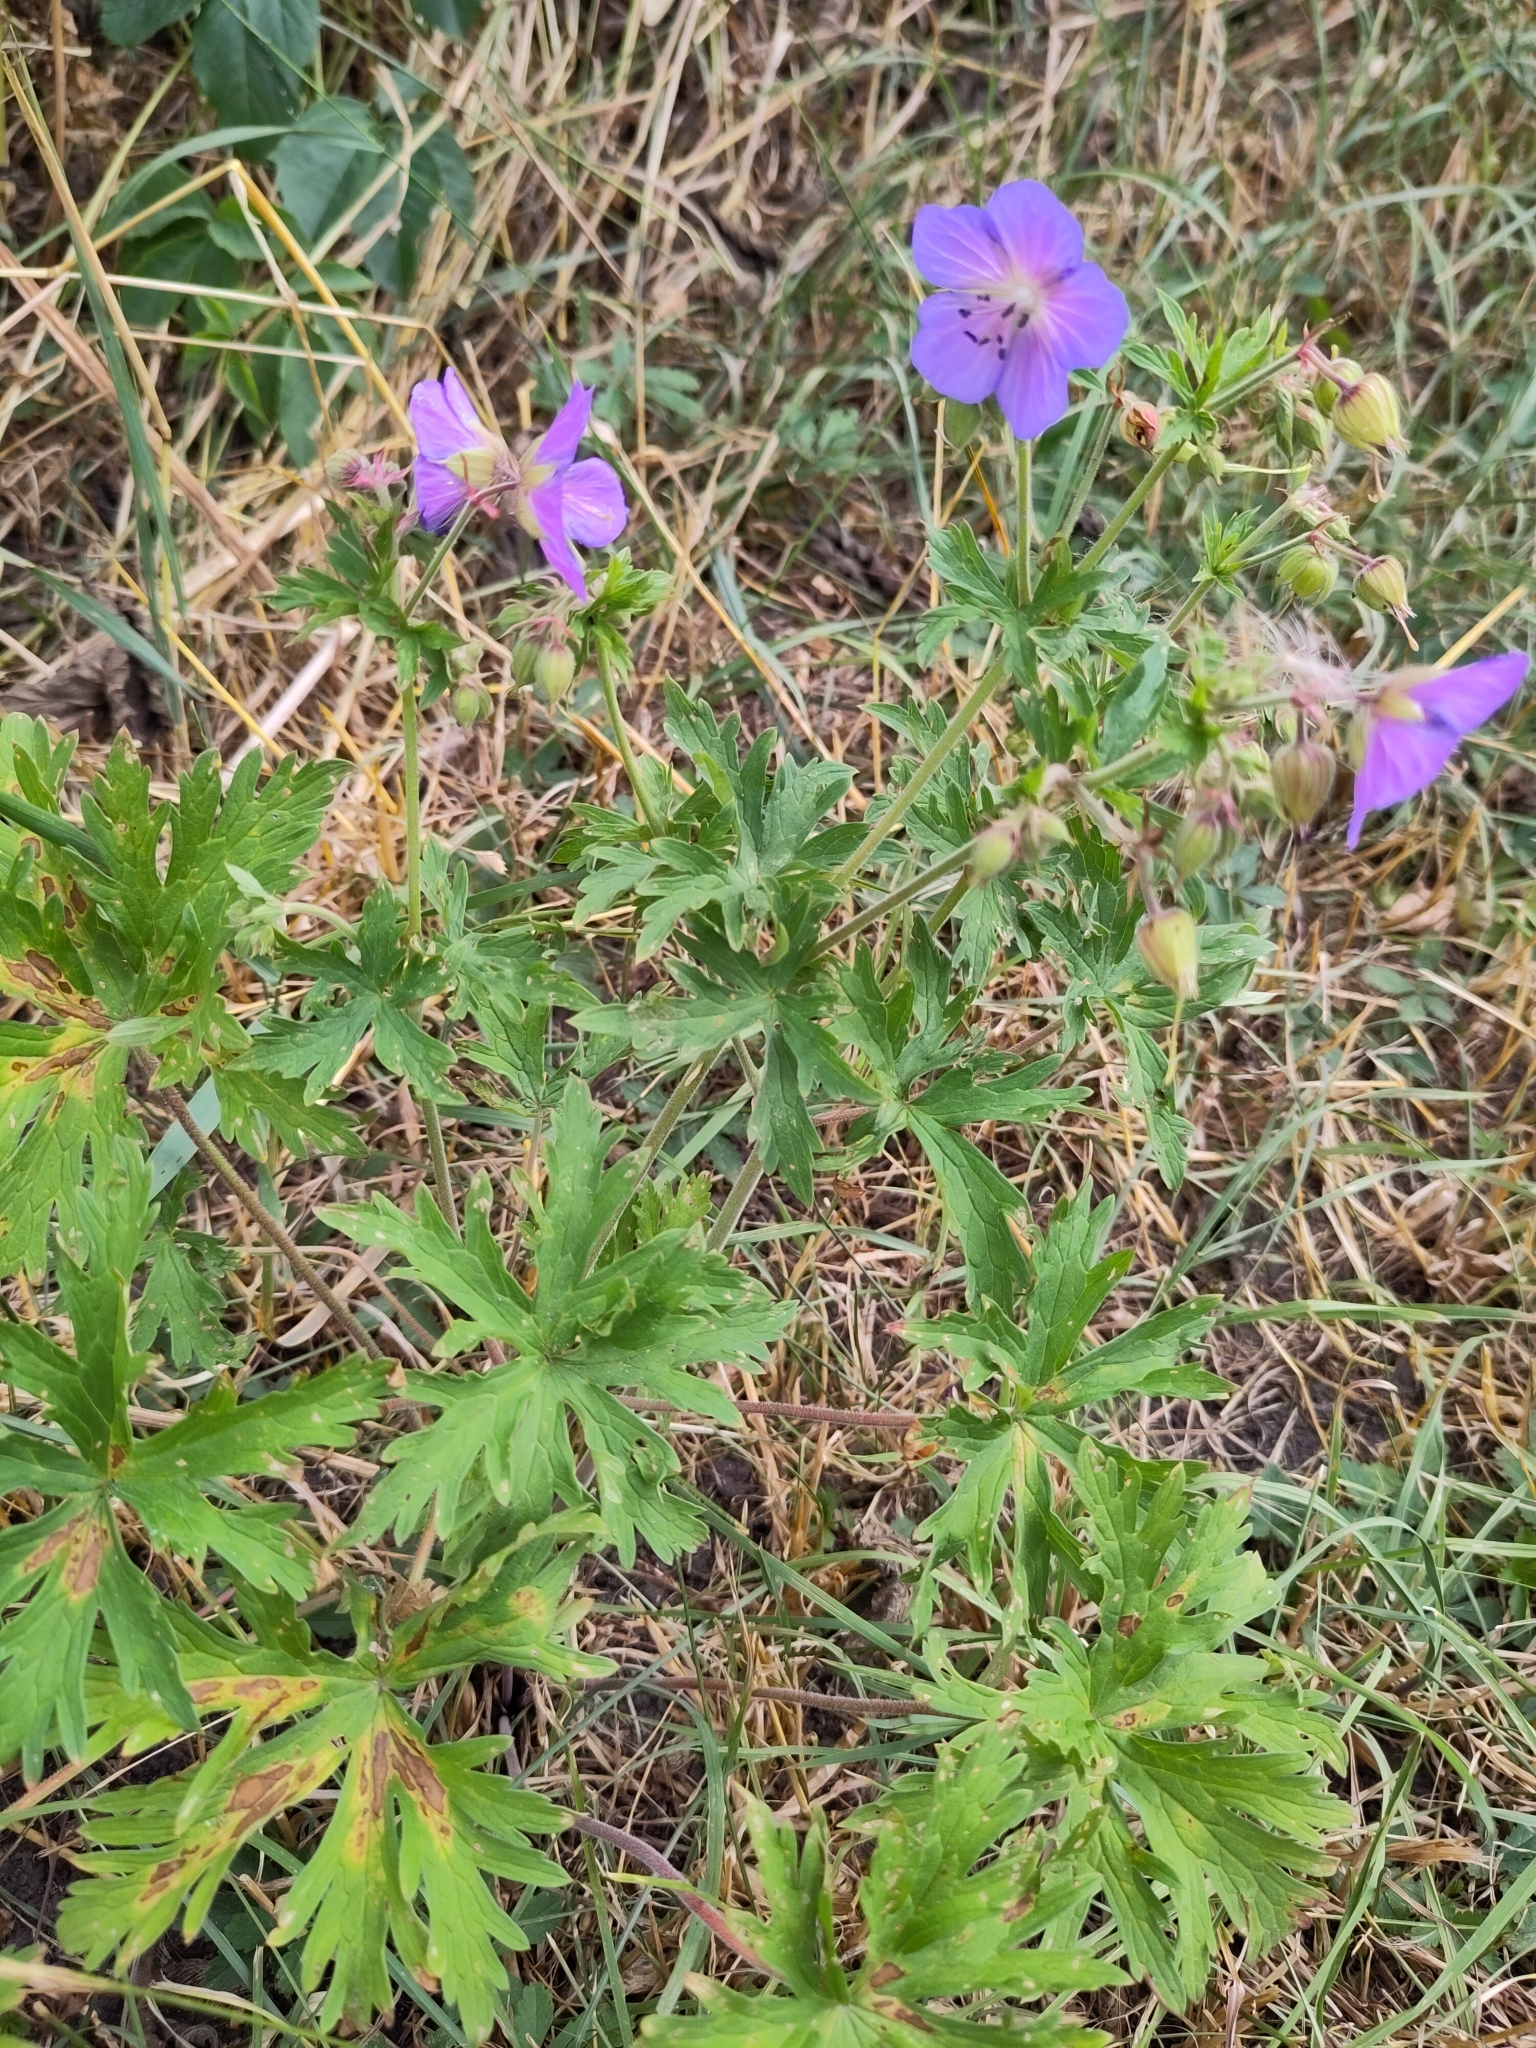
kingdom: Plantae
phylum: Tracheophyta
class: Magnoliopsida
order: Geraniales
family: Geraniaceae
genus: Geranium
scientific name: Geranium pratense
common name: Meadow crane's-bill
